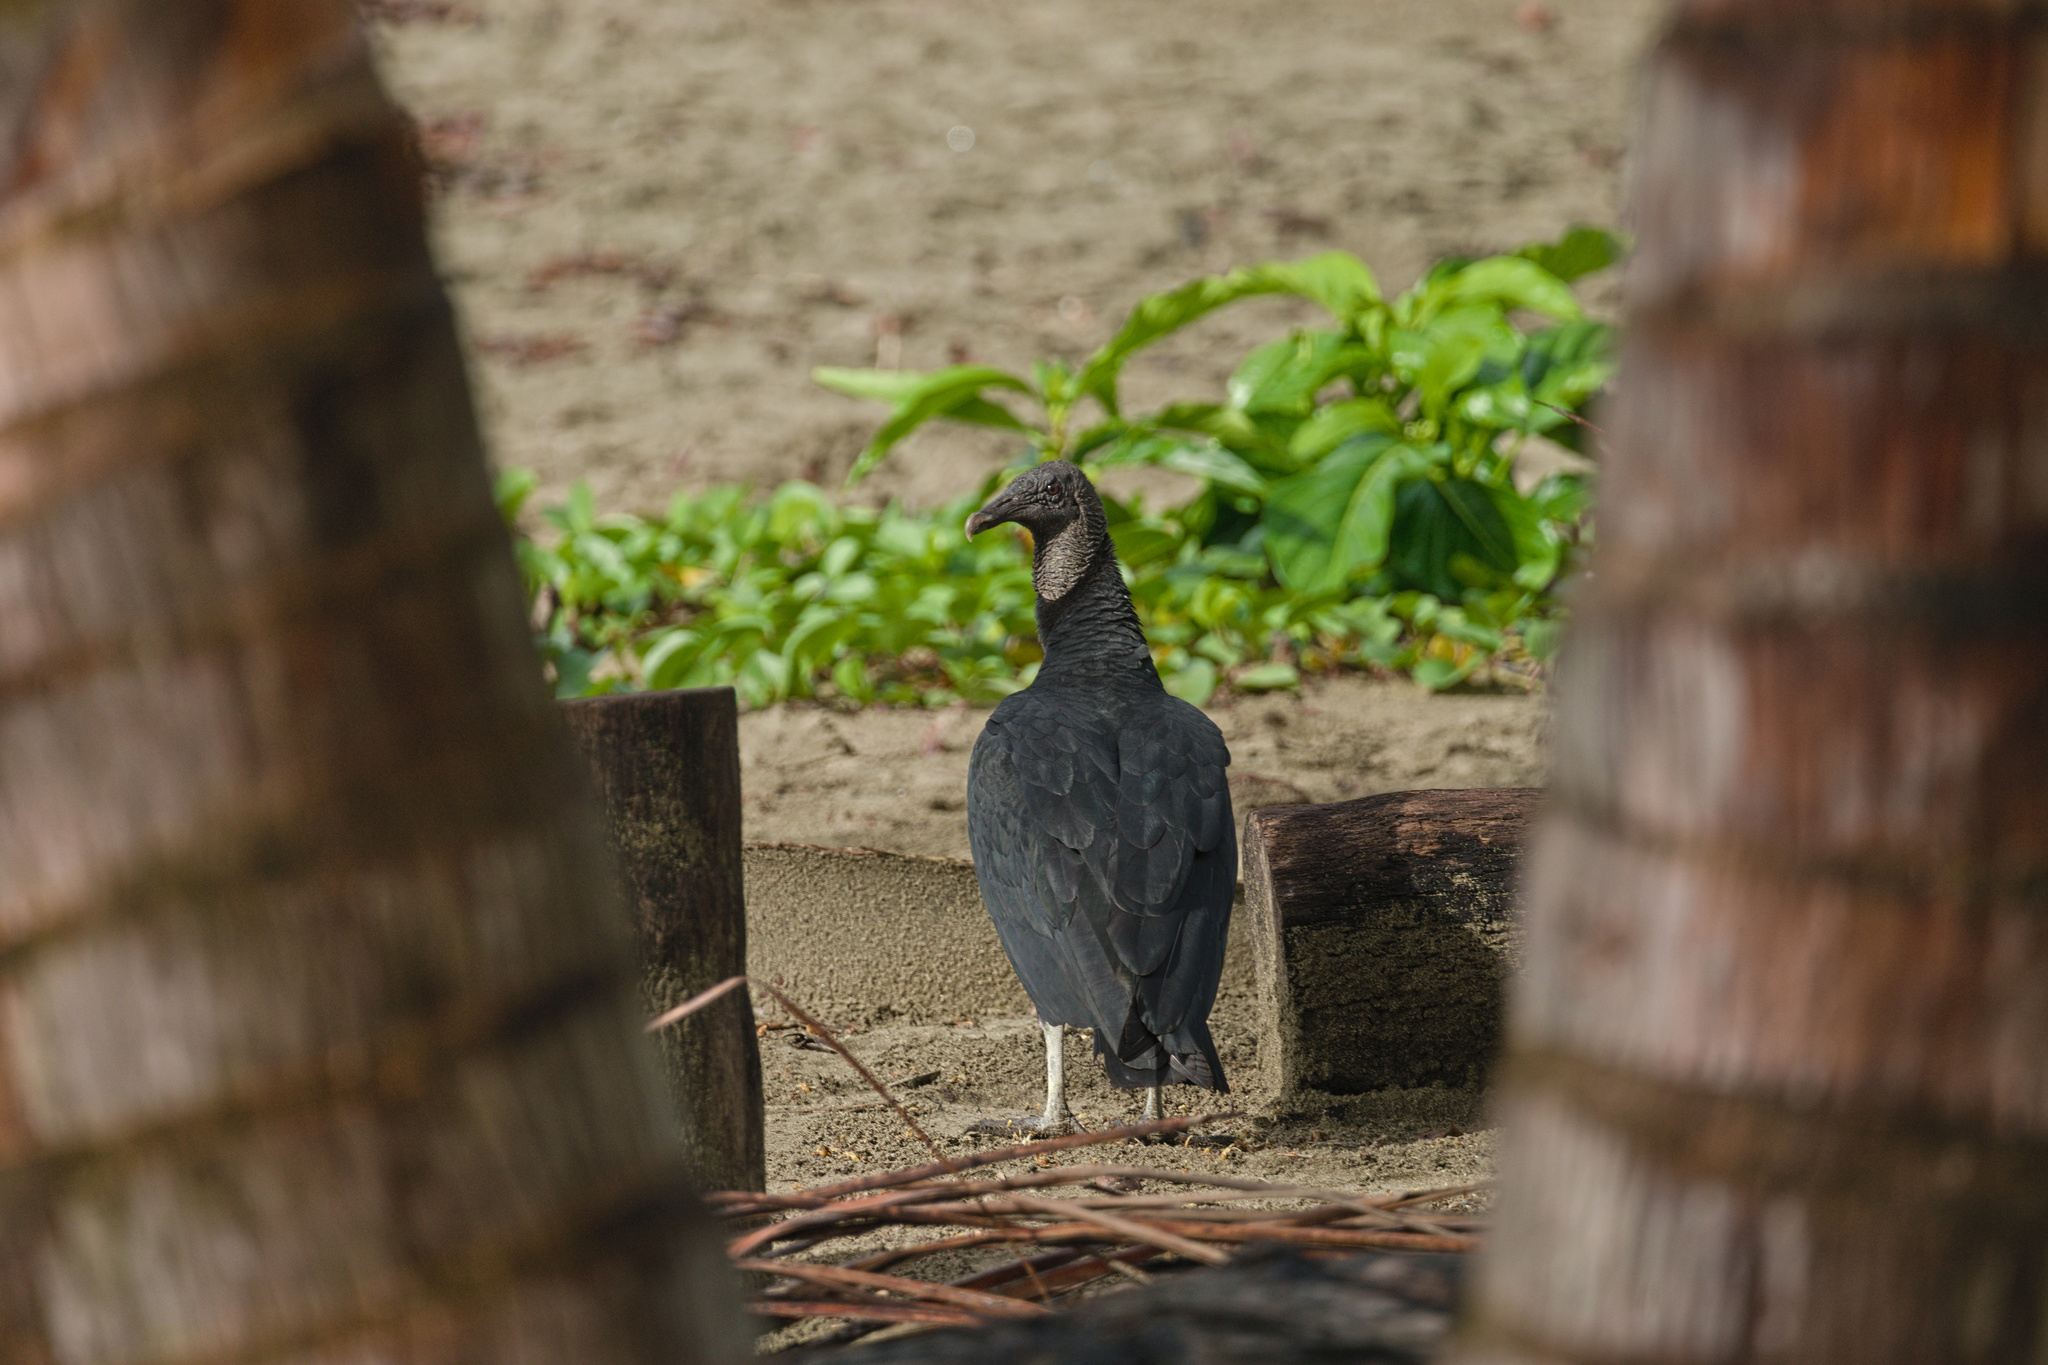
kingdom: Animalia
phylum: Chordata
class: Aves
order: Accipitriformes
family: Cathartidae
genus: Coragyps
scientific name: Coragyps atratus
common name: Black vulture
